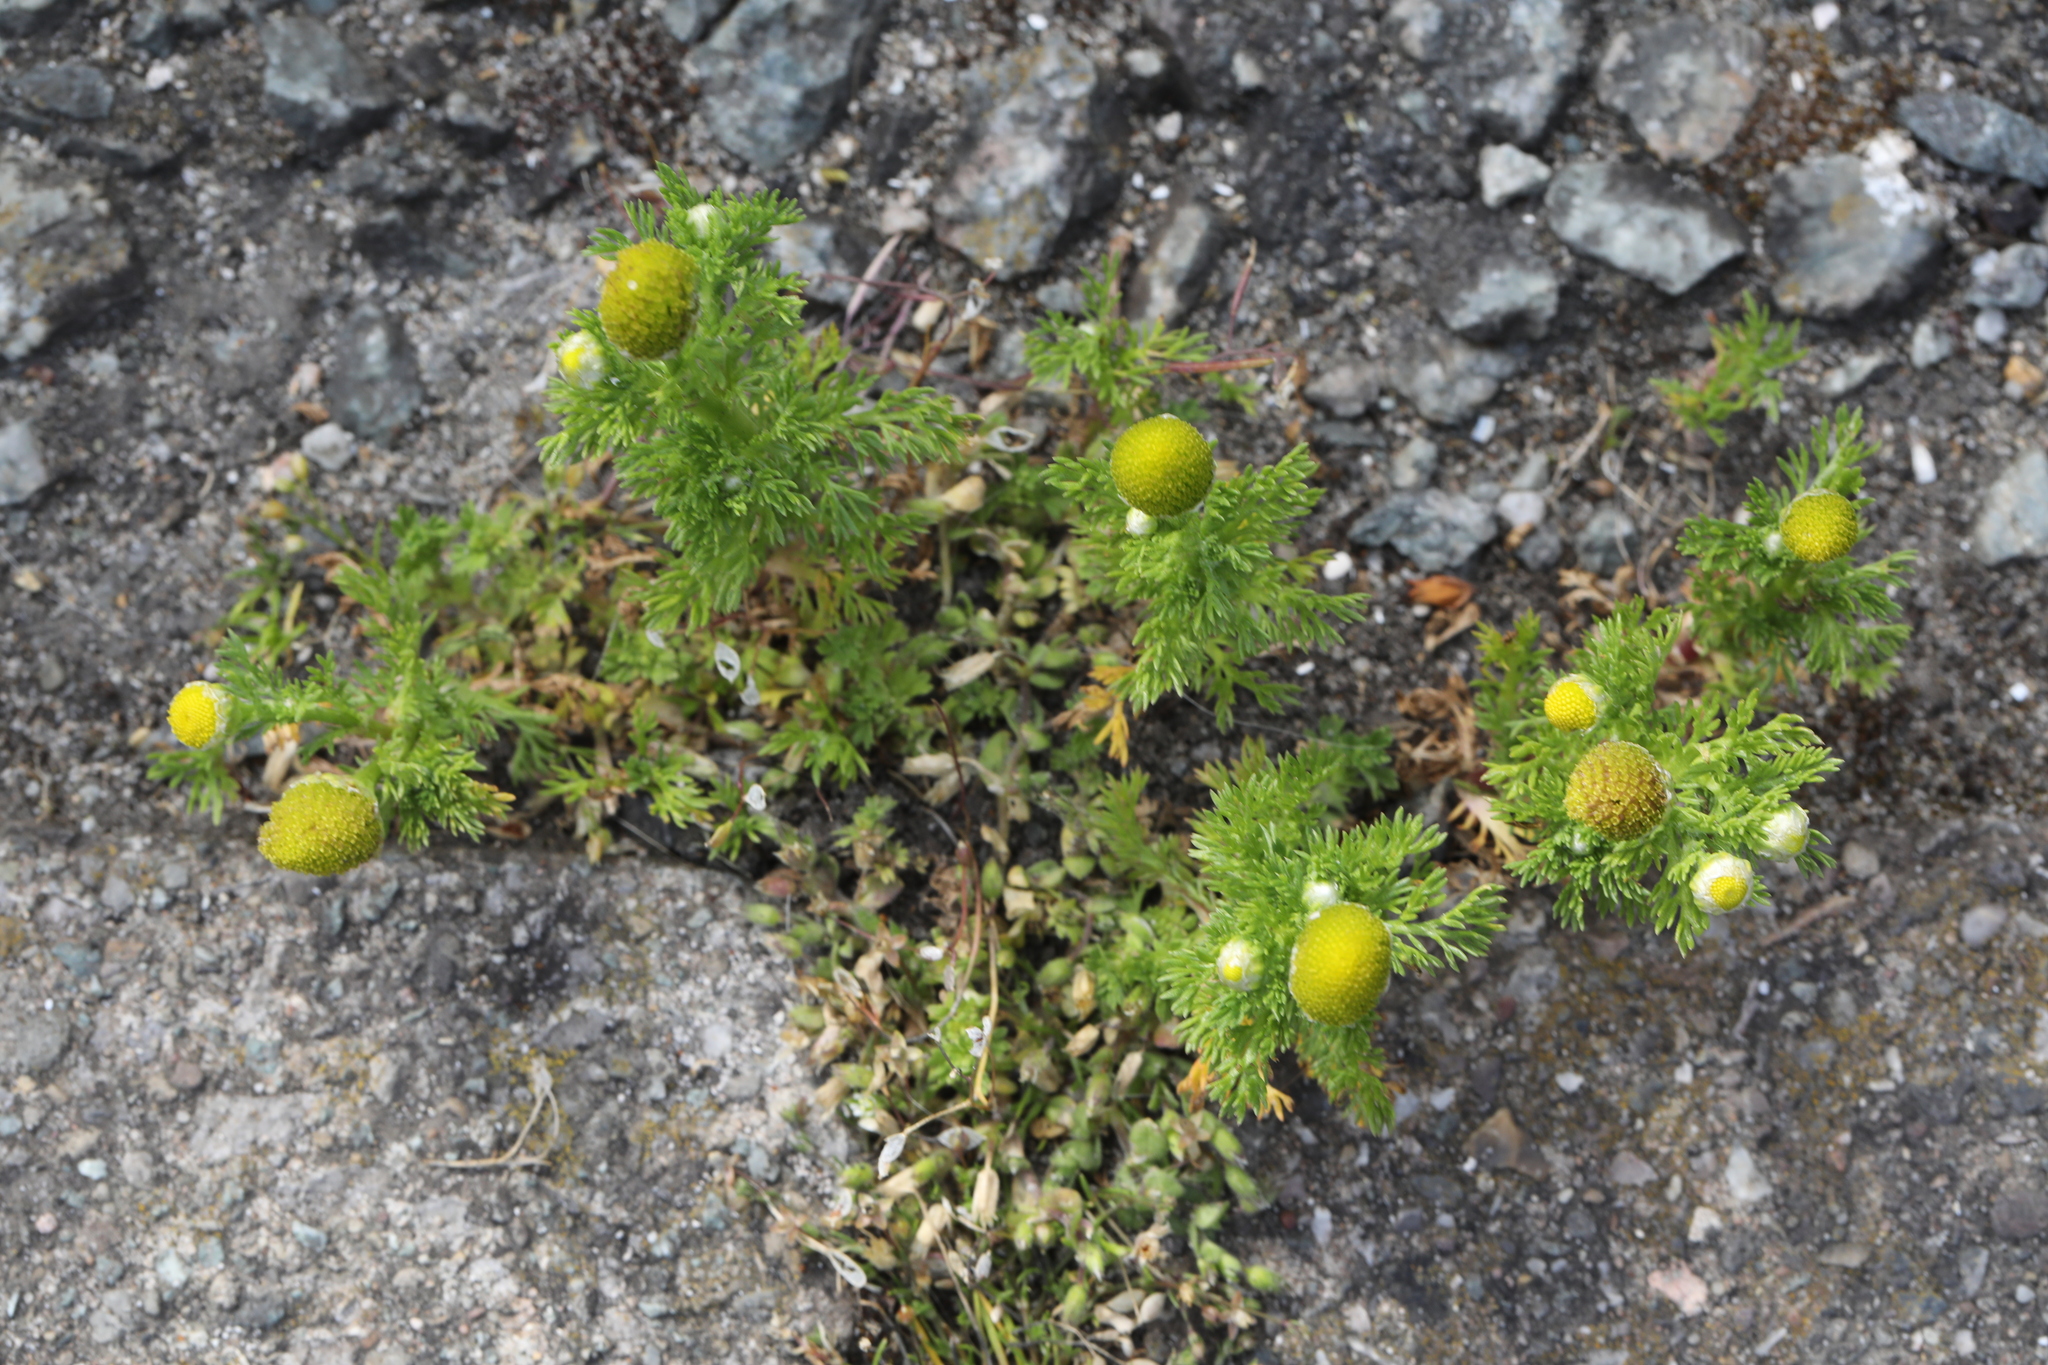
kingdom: Plantae
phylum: Tracheophyta
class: Magnoliopsida
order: Asterales
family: Asteraceae
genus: Matricaria
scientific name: Matricaria discoidea
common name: Disc mayweed
